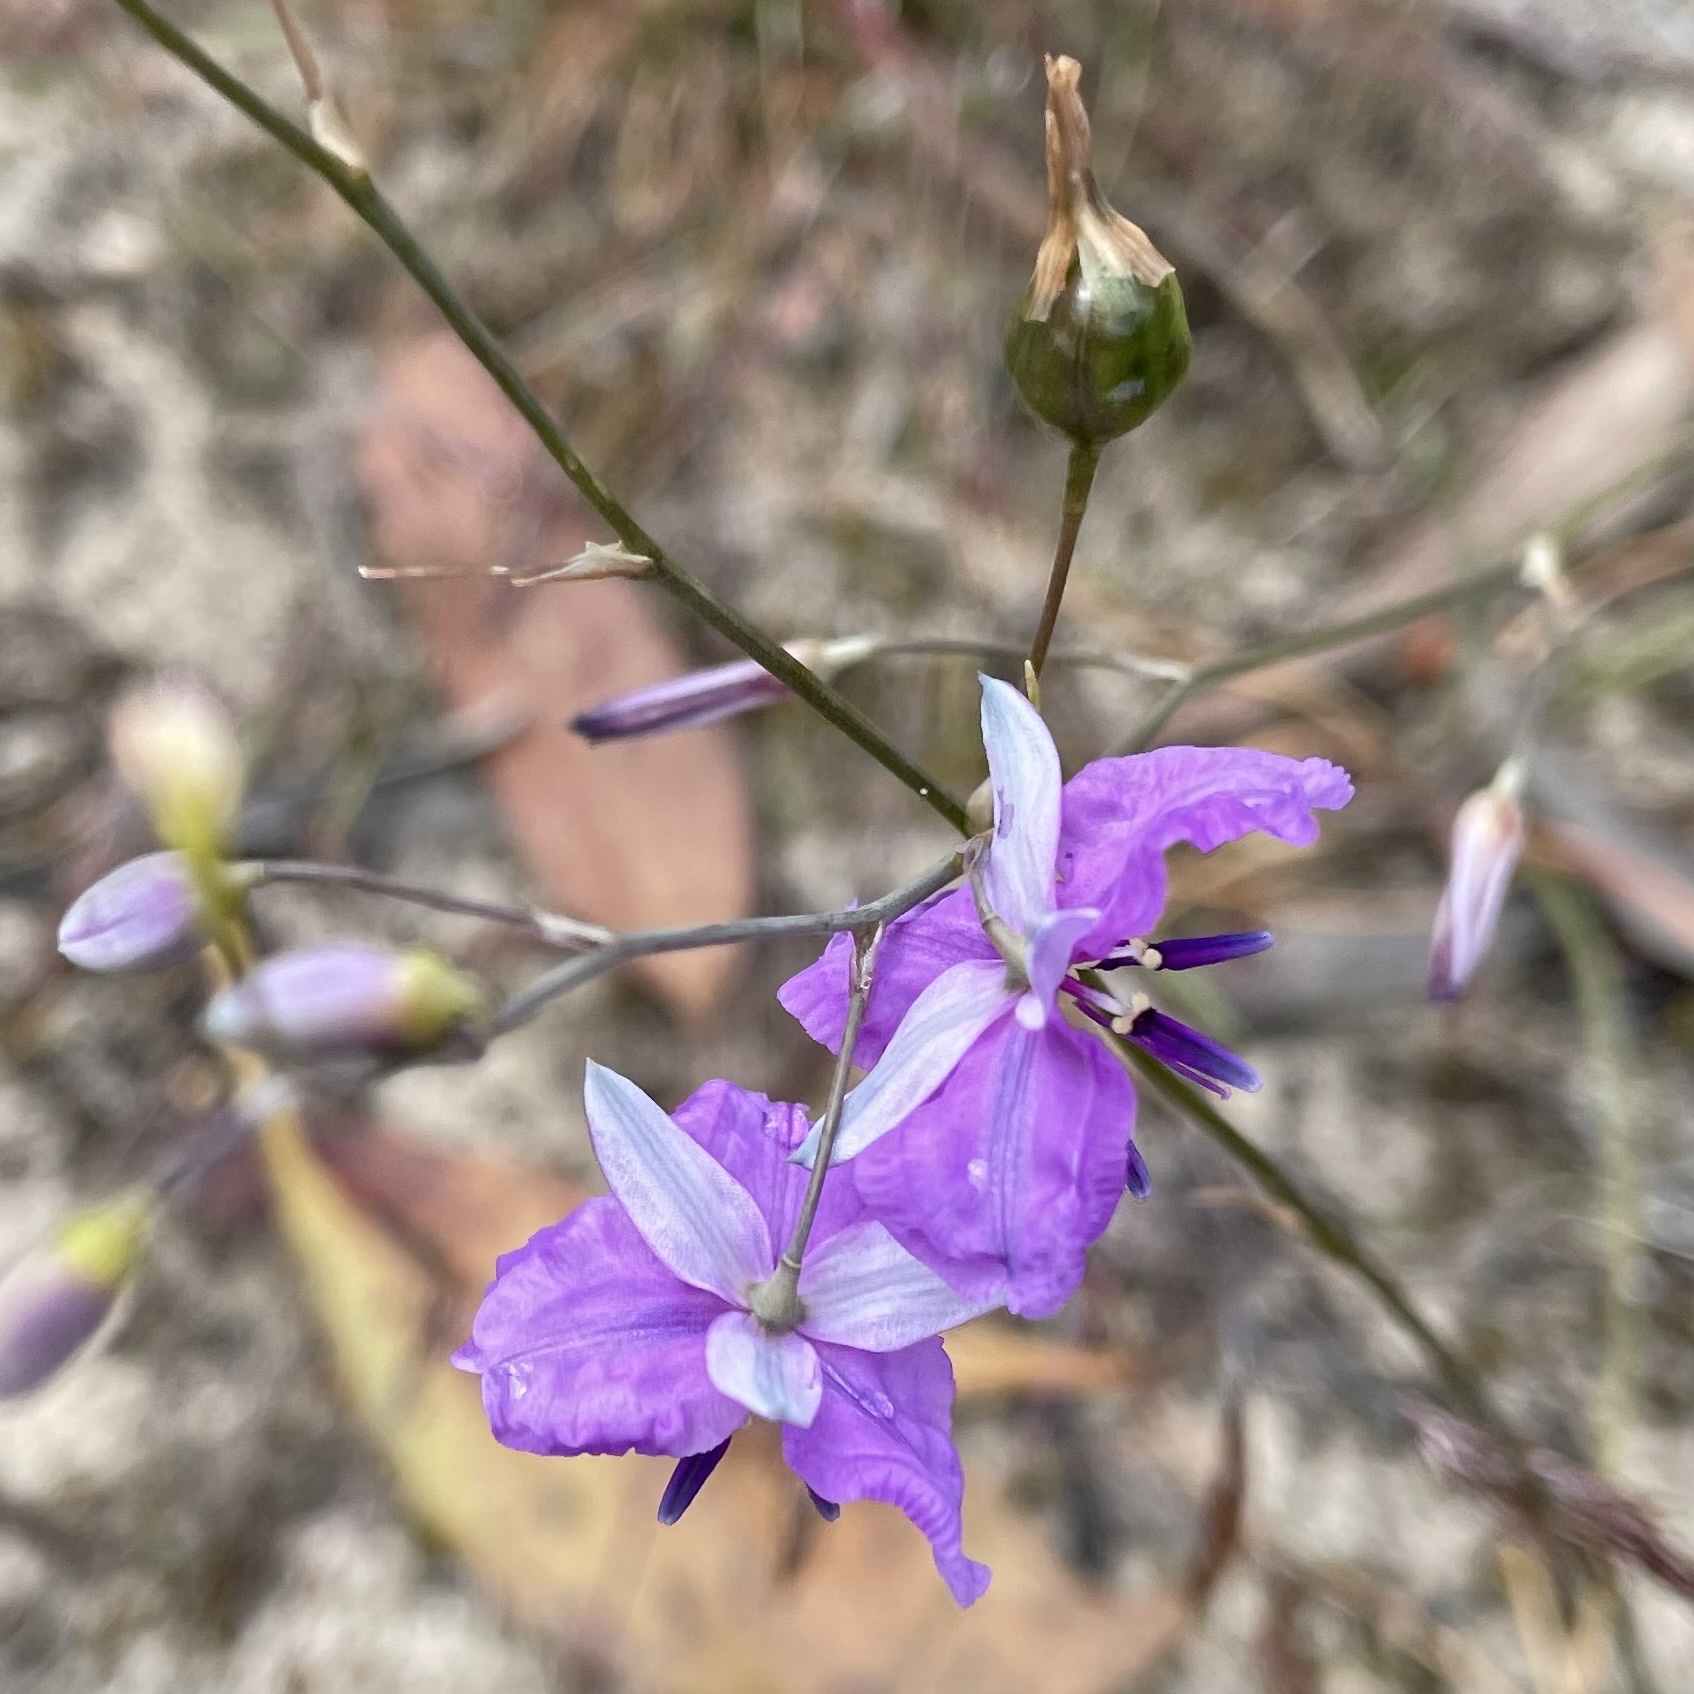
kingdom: Plantae
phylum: Tracheophyta
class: Liliopsida
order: Asparagales
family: Asparagaceae
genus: Arthropodium
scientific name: Arthropodium strictum
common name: Chocolate-lily
